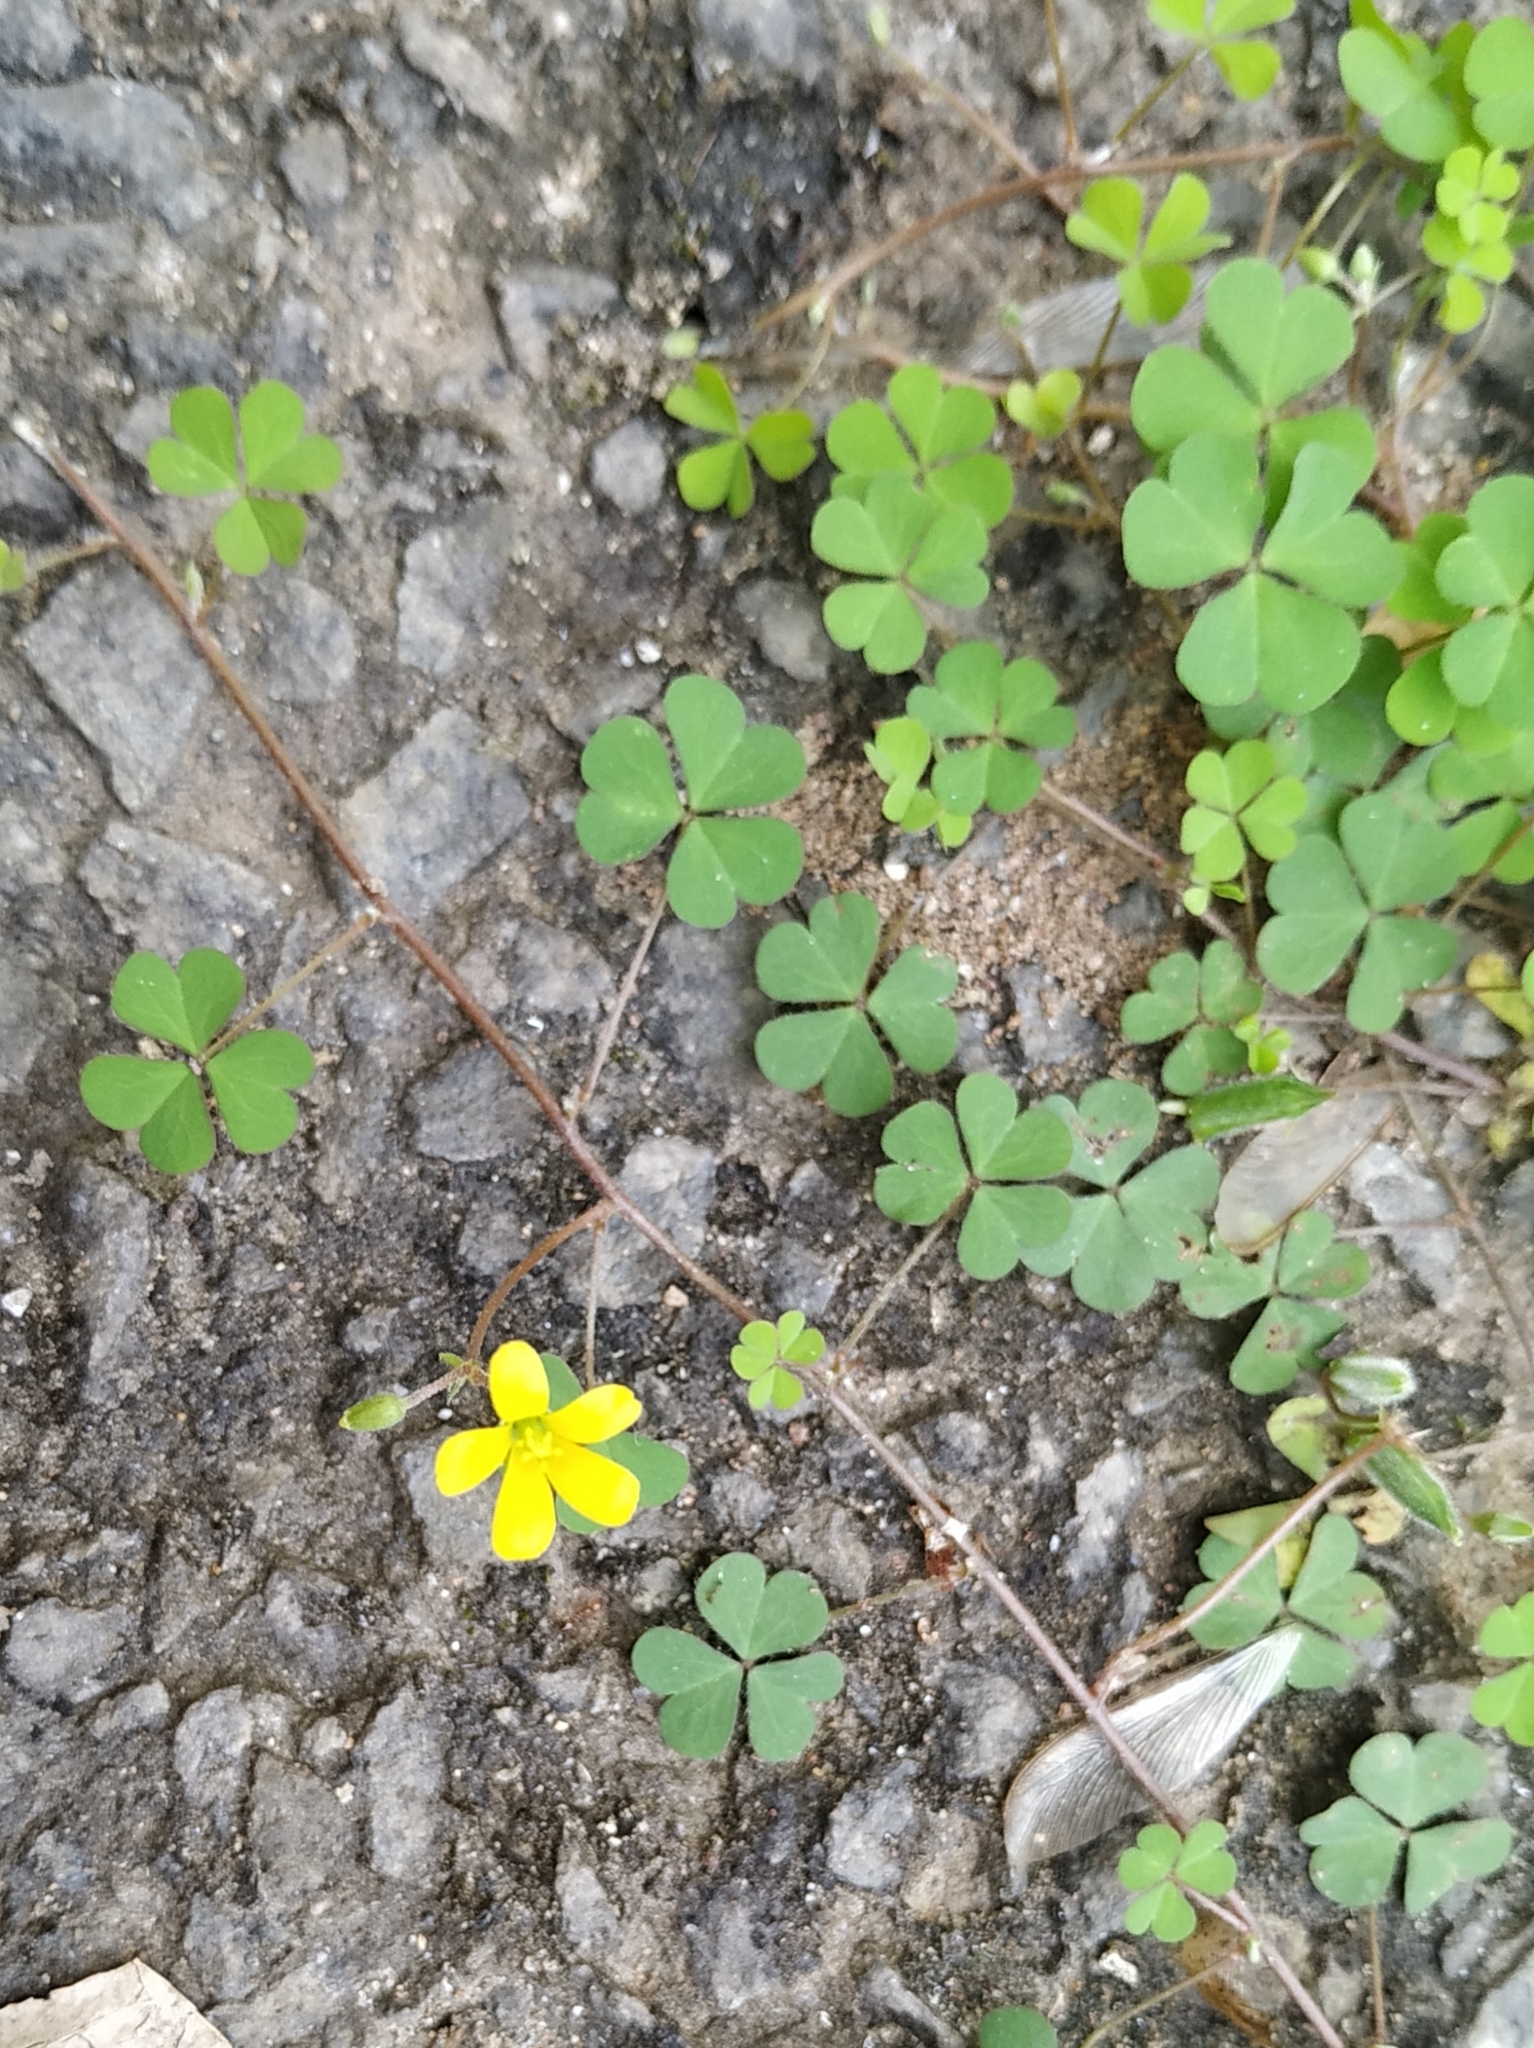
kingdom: Plantae
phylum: Tracheophyta
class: Magnoliopsida
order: Oxalidales
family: Oxalidaceae
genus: Oxalis
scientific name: Oxalis corniculata
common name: Procumbent yellow-sorrel
